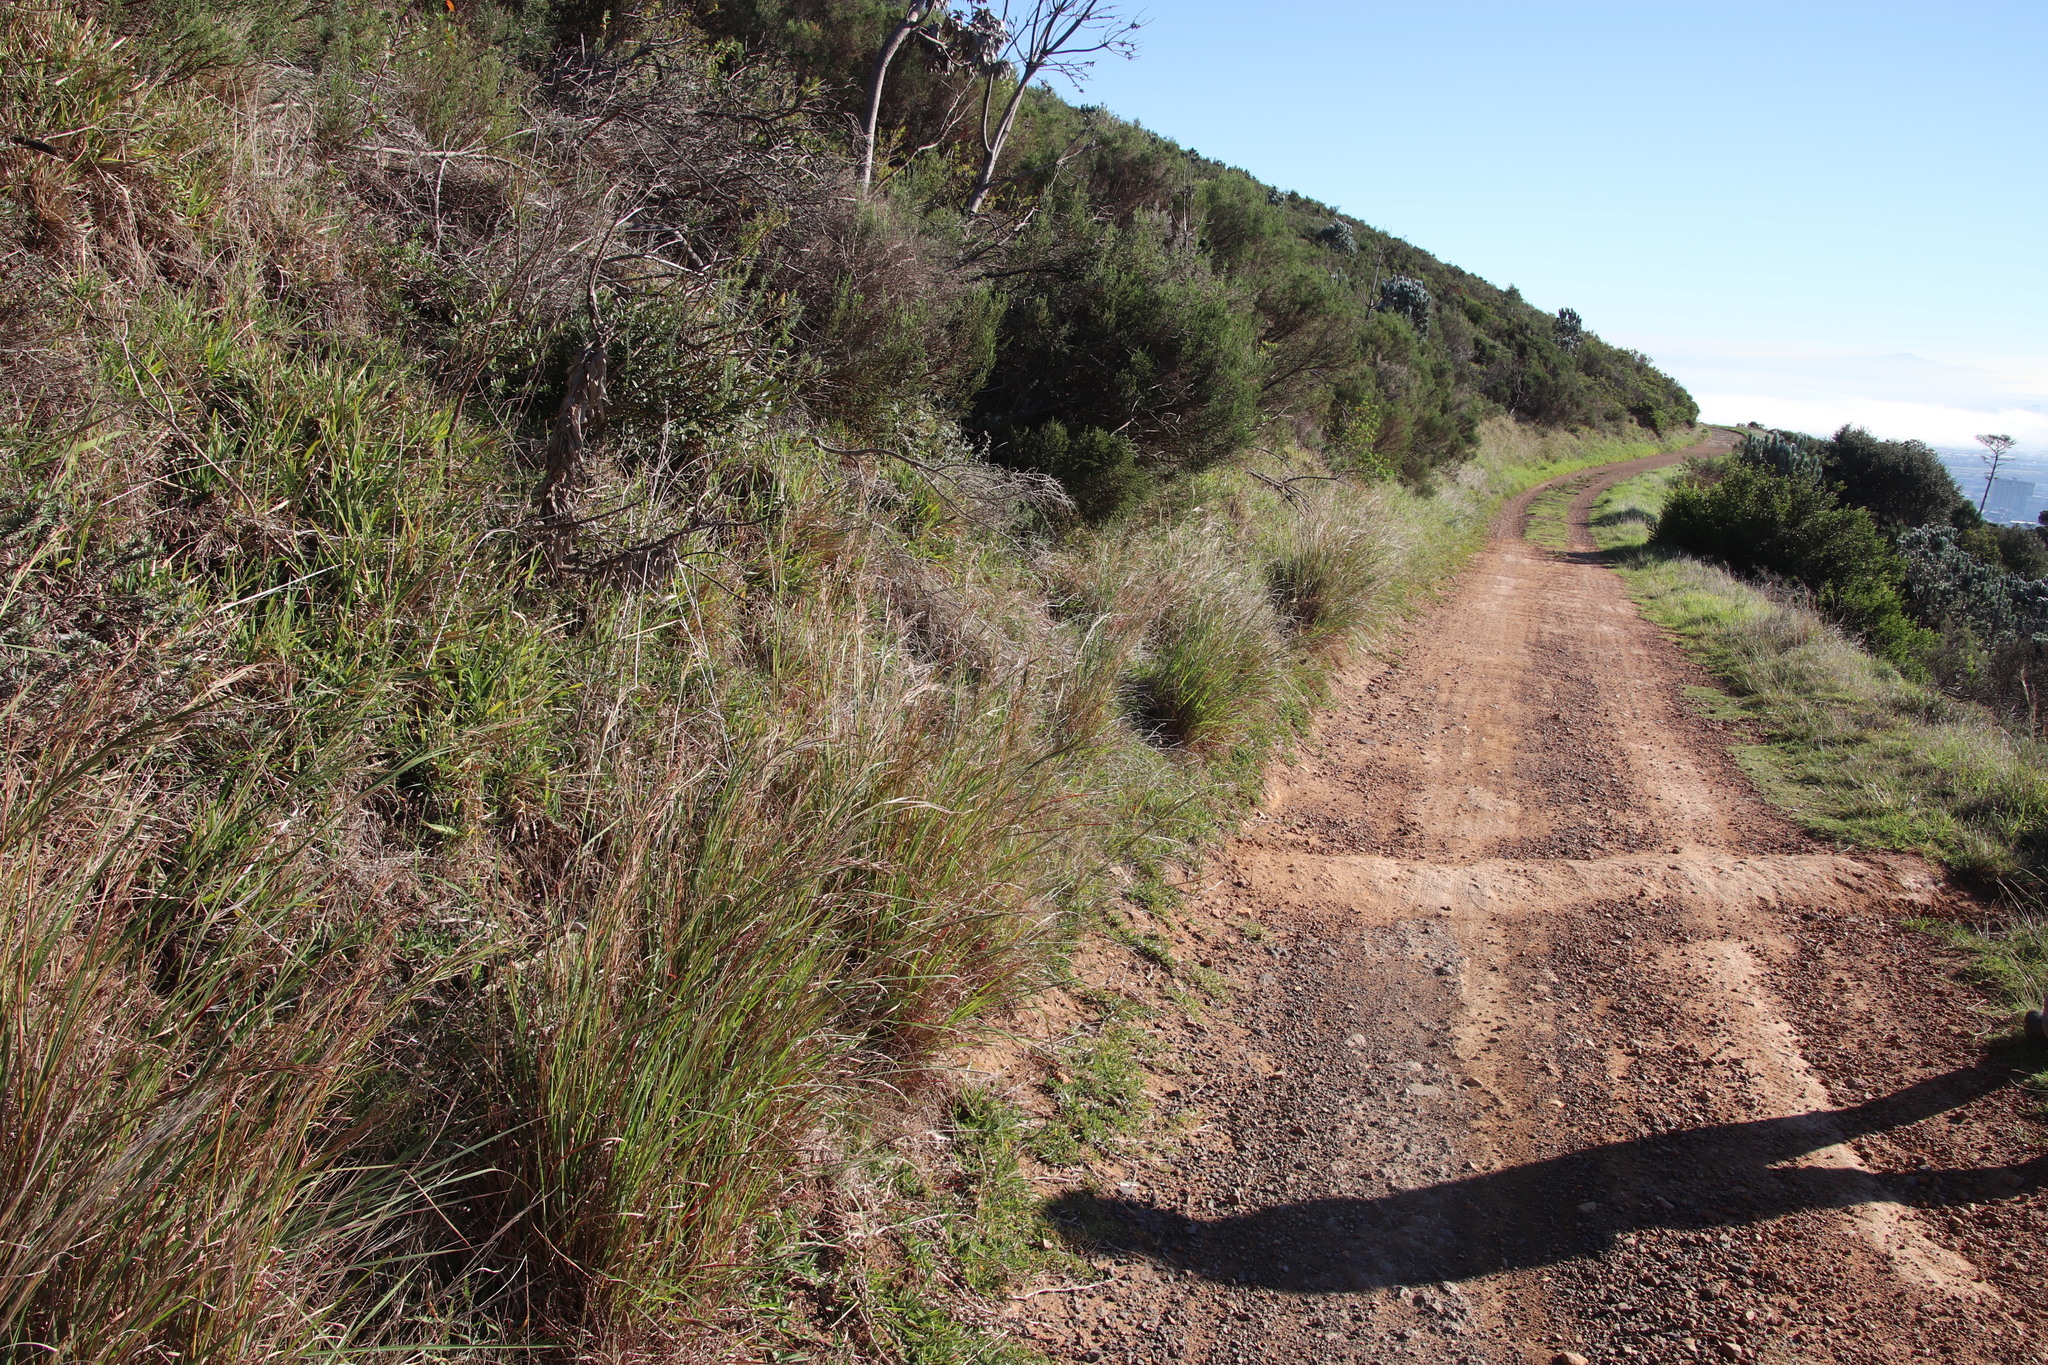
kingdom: Plantae
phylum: Tracheophyta
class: Liliopsida
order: Poales
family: Poaceae
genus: Hyparrhenia
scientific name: Hyparrhenia hirta
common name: Thatching grass
